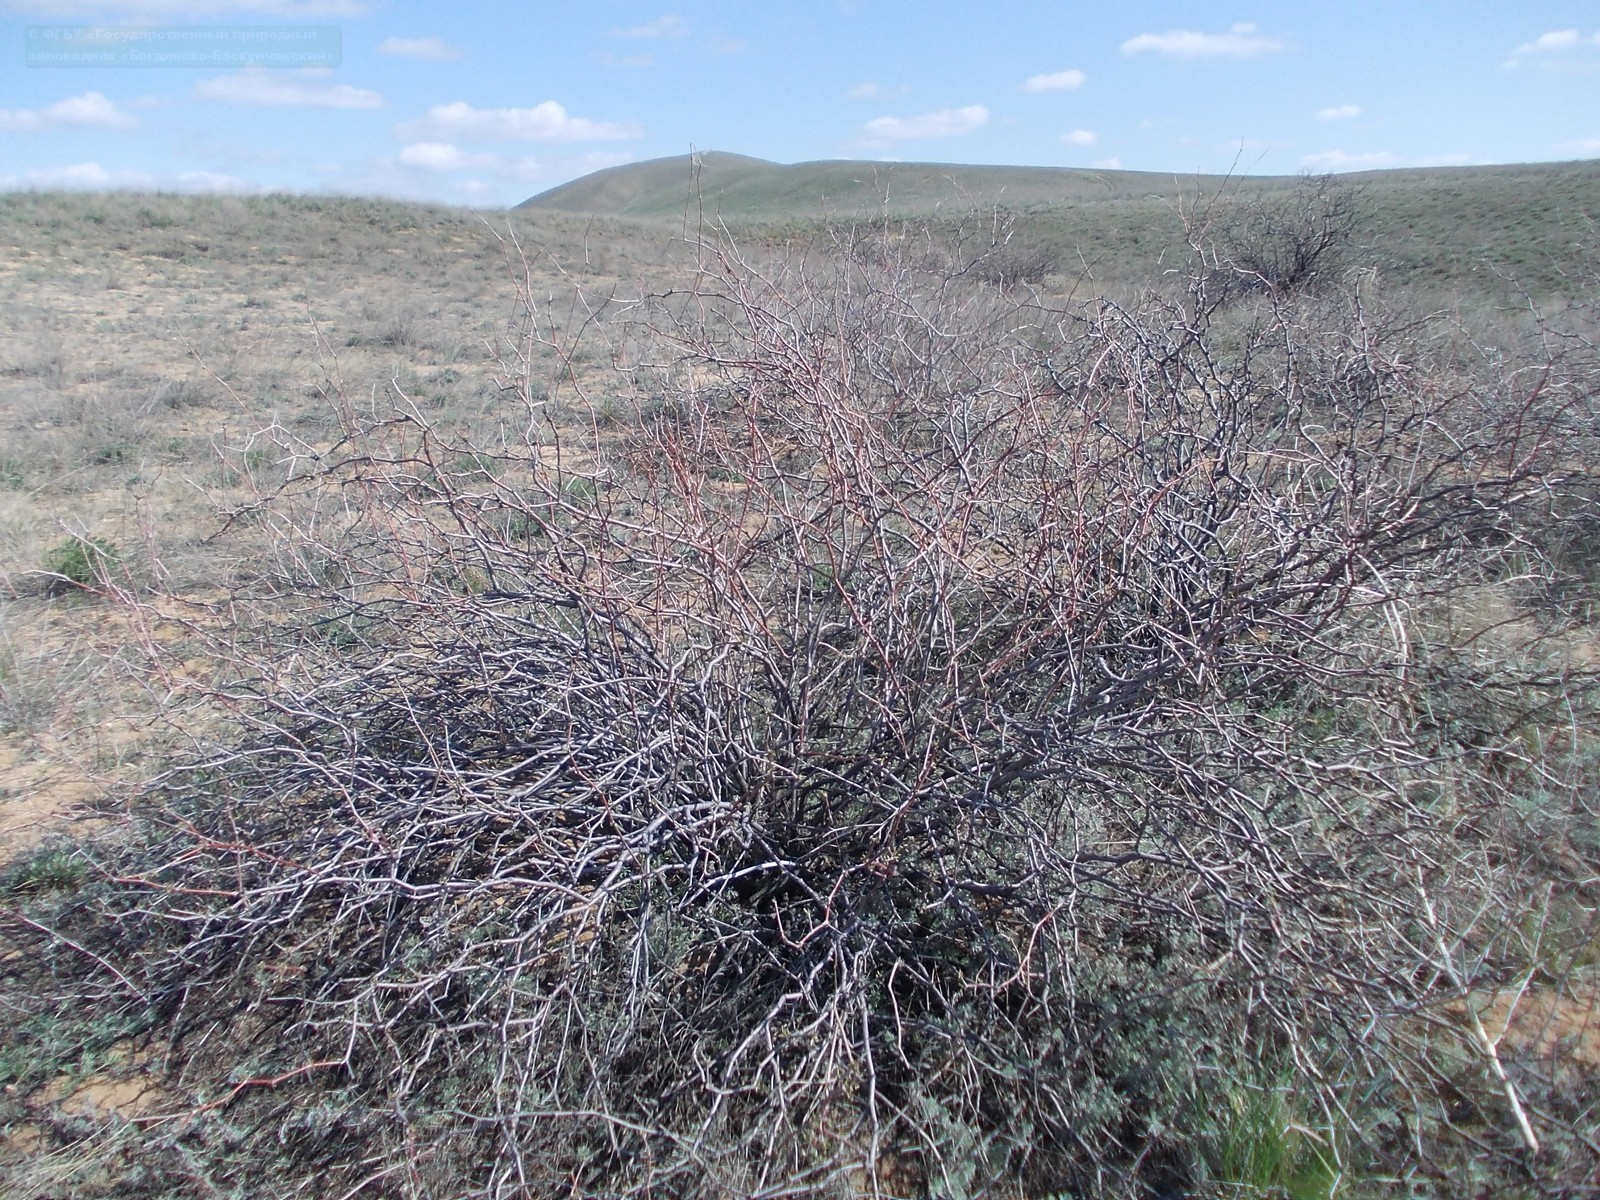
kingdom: Plantae
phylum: Tracheophyta
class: Magnoliopsida
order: Caryophyllales
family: Polygonaceae
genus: Calligonum
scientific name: Calligonum aphyllum
